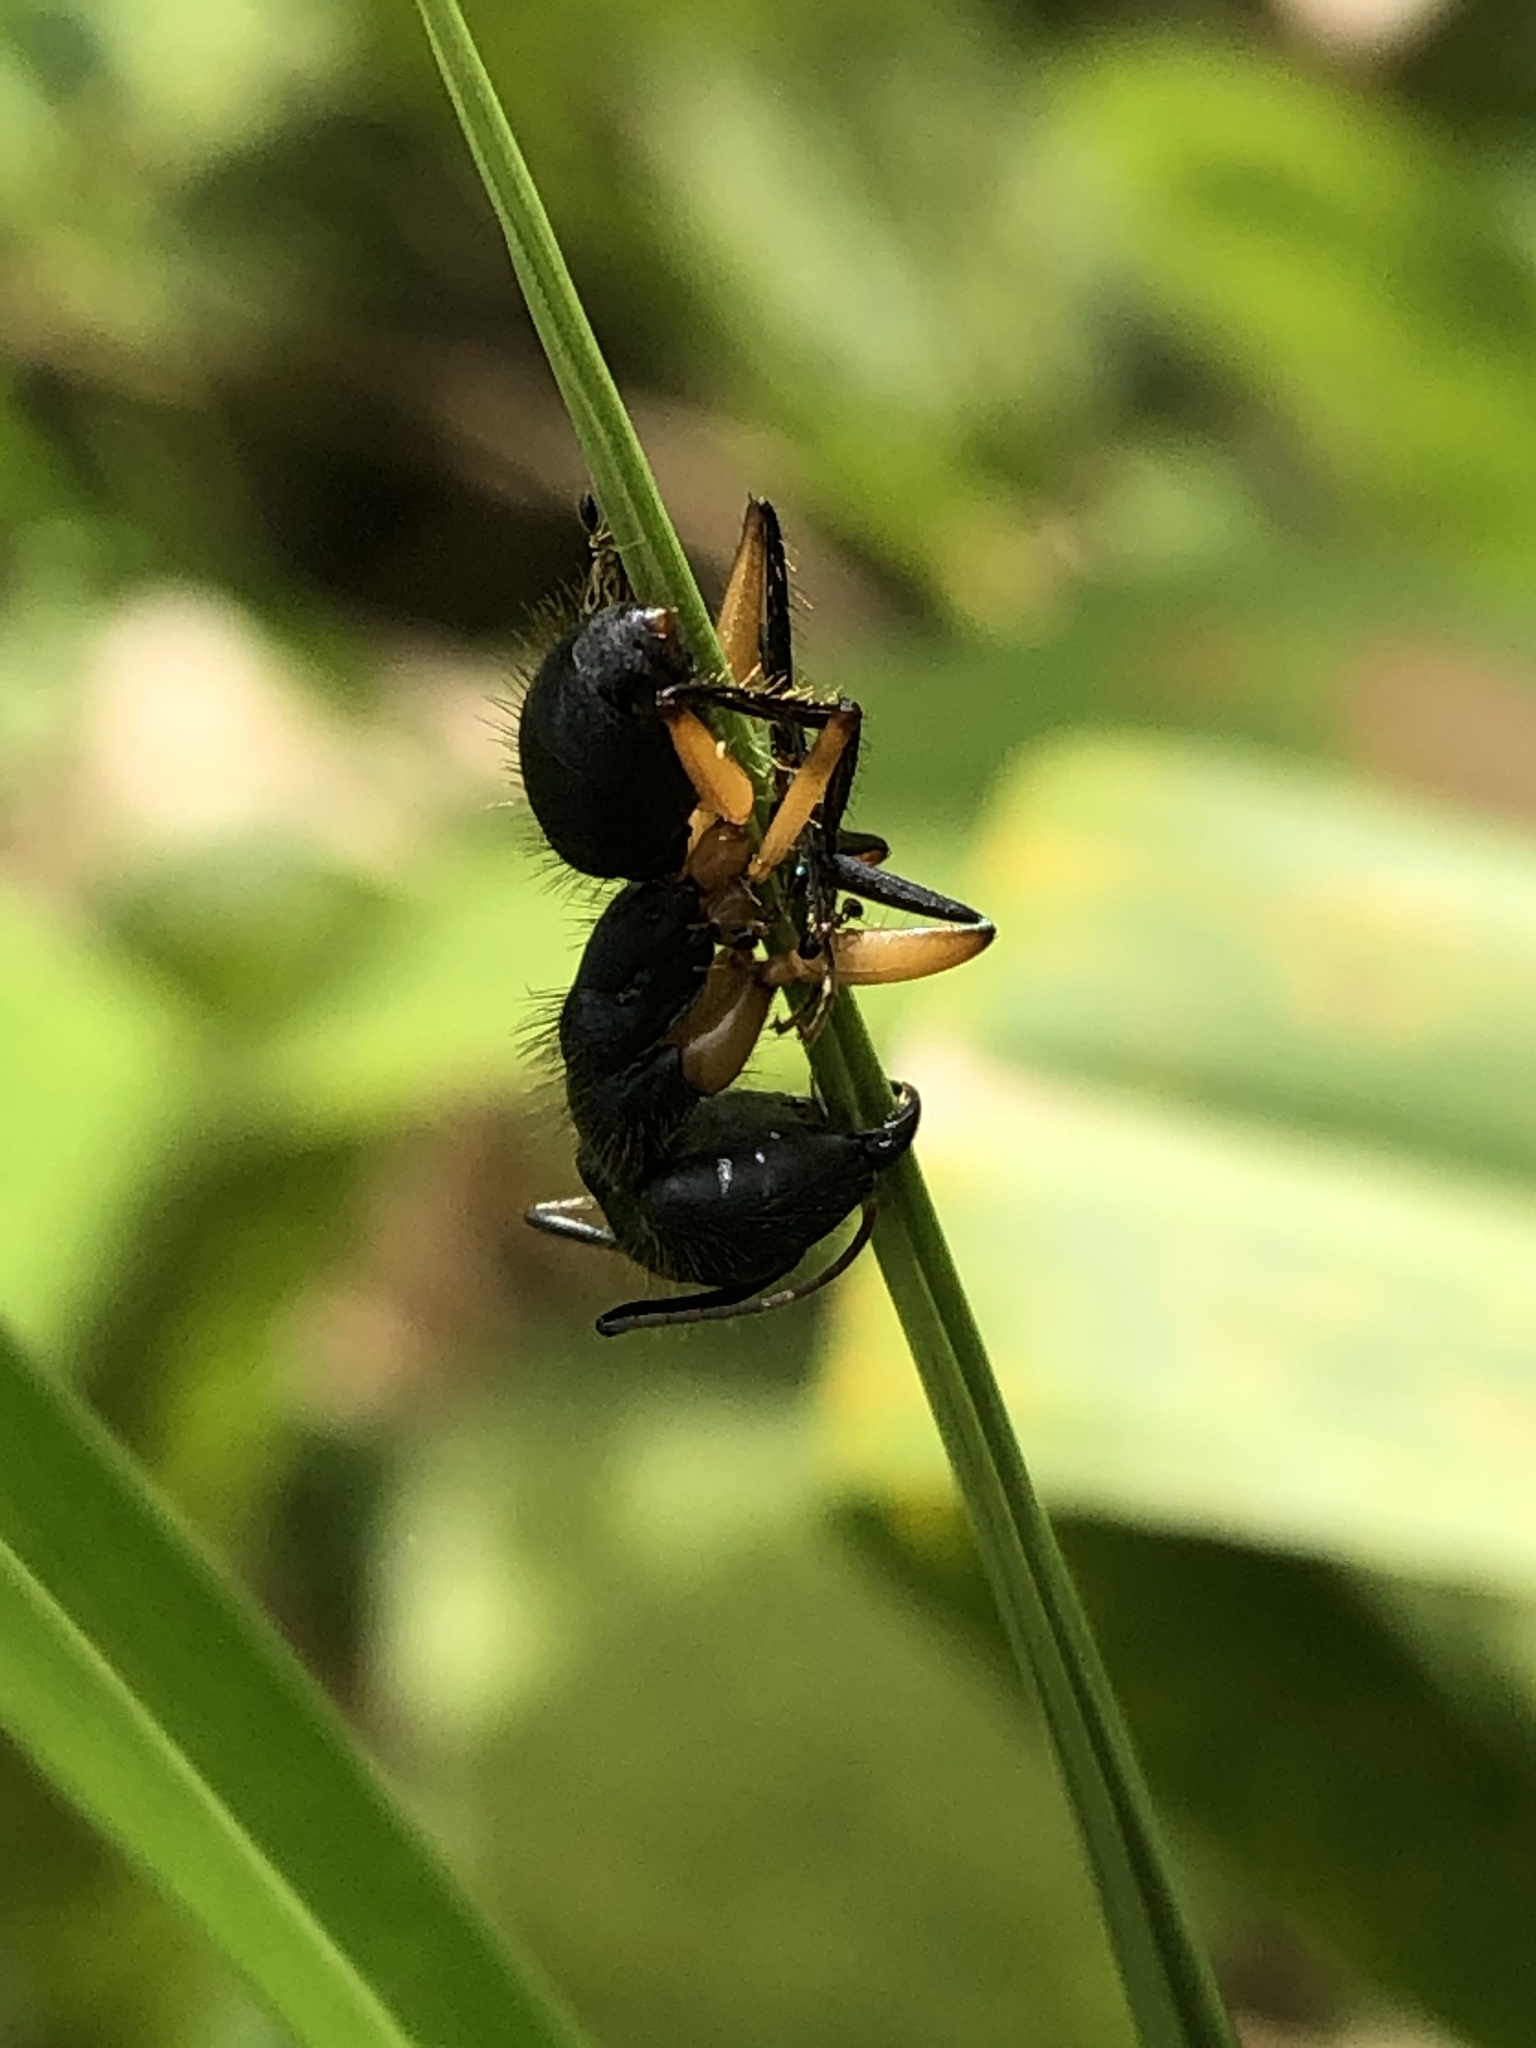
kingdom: Animalia
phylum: Arthropoda
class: Insecta
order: Hymenoptera
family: Formicidae
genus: Camponotus
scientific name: Camponotus renggeri
